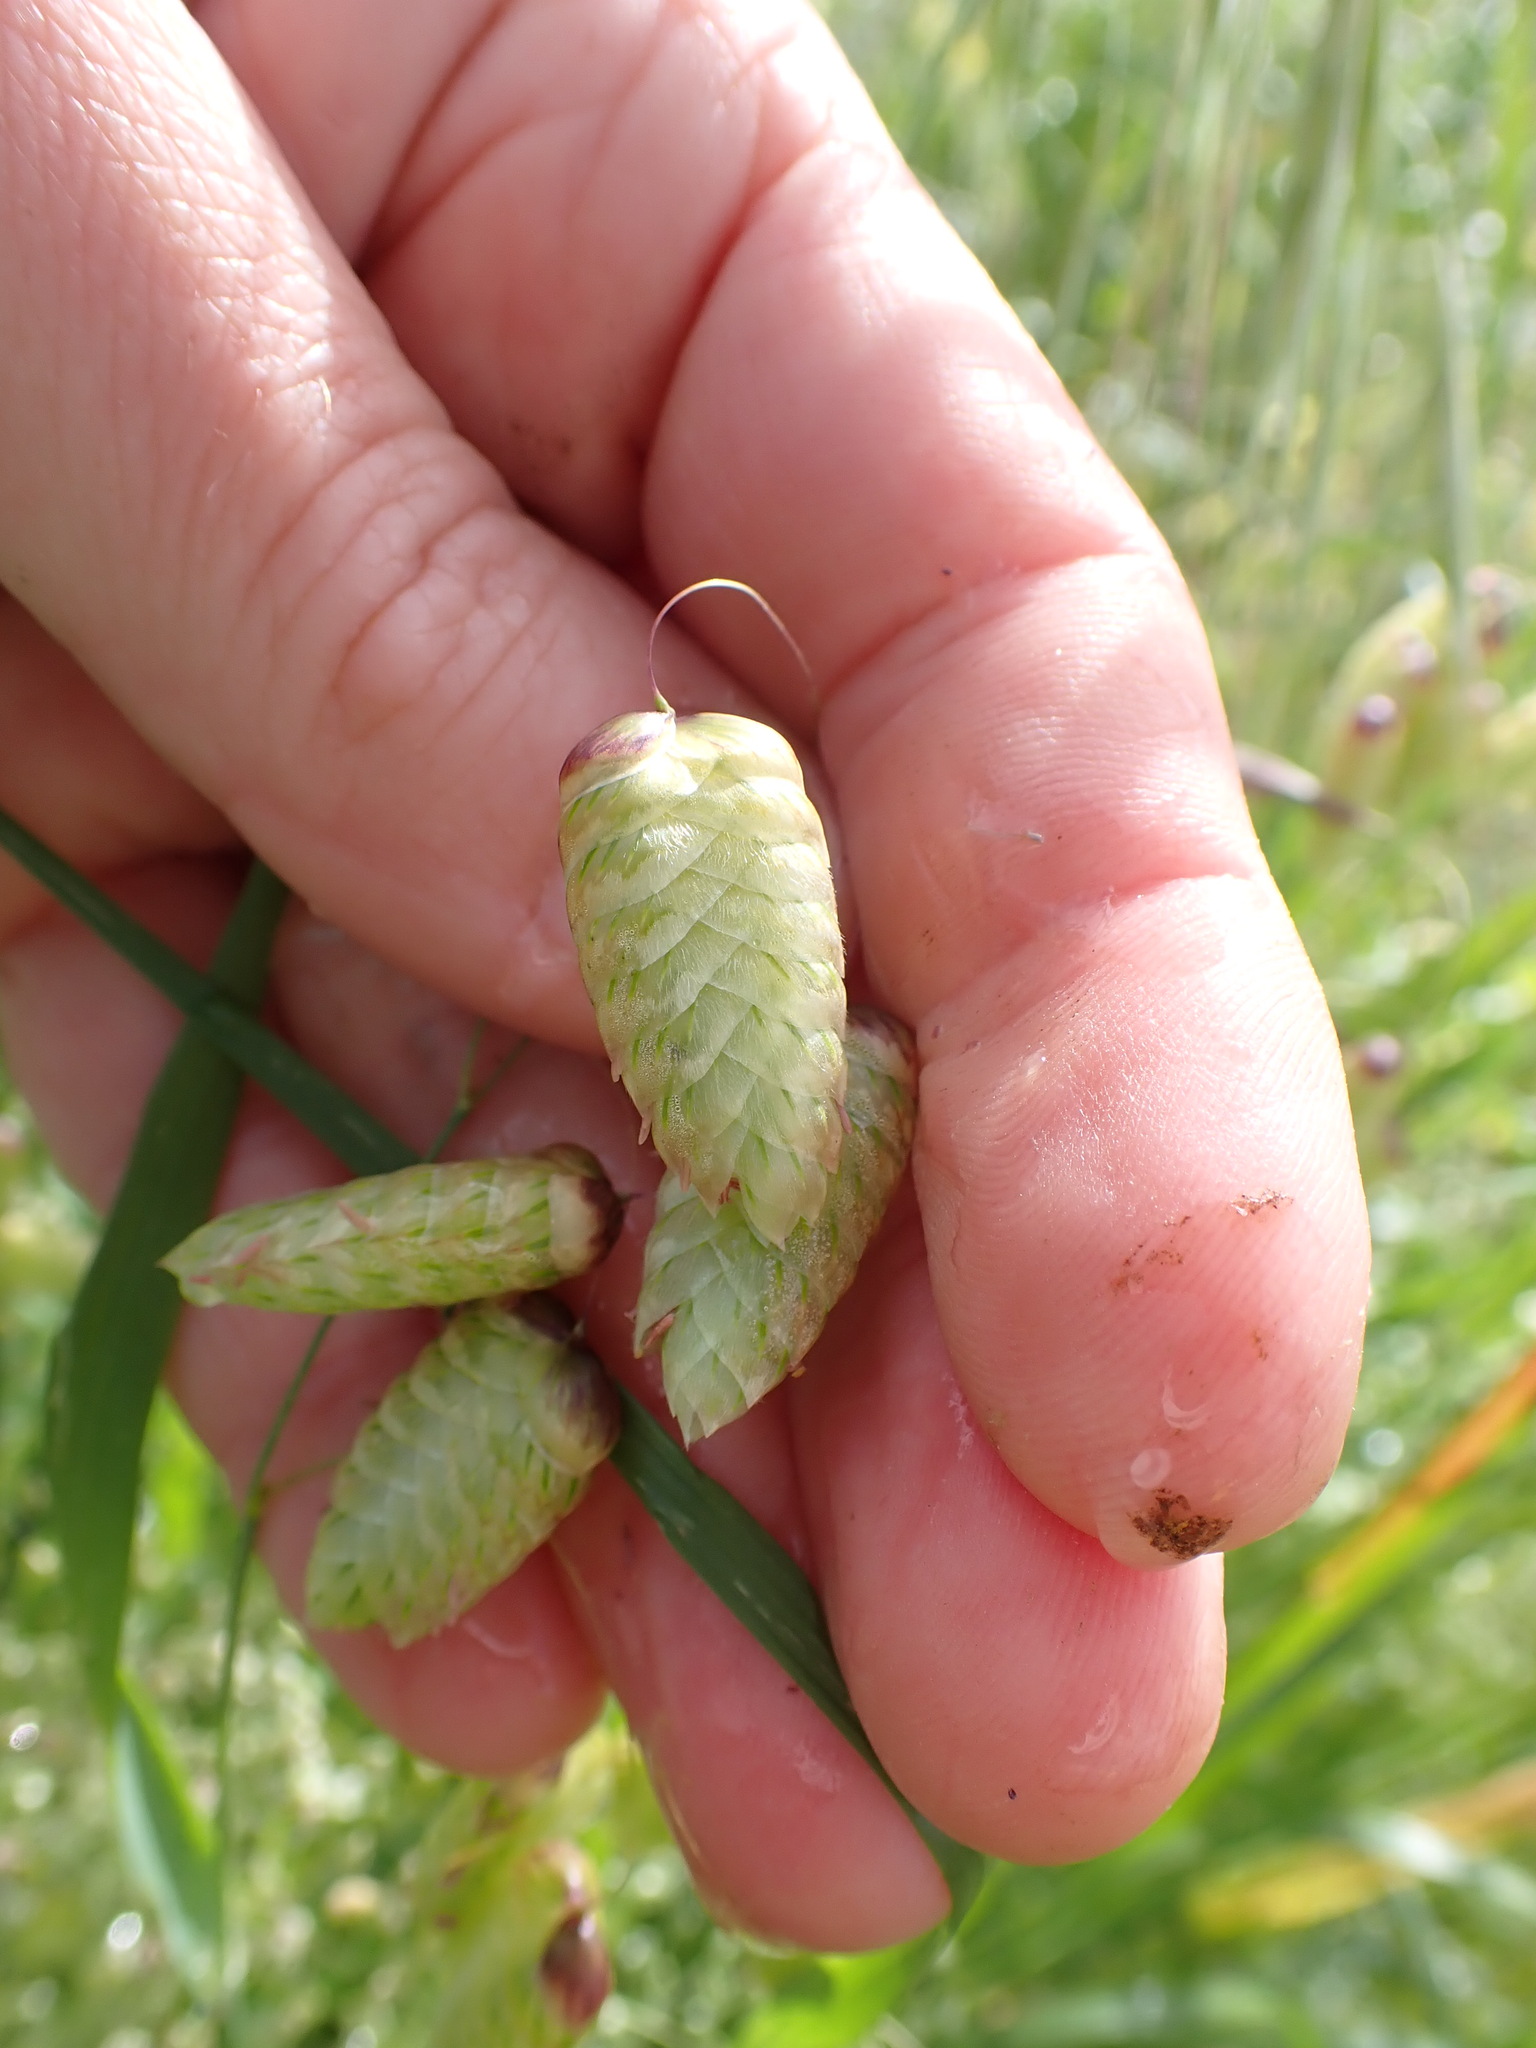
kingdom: Plantae
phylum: Tracheophyta
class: Liliopsida
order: Poales
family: Poaceae
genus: Briza
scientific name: Briza maxima
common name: Big quakinggrass
